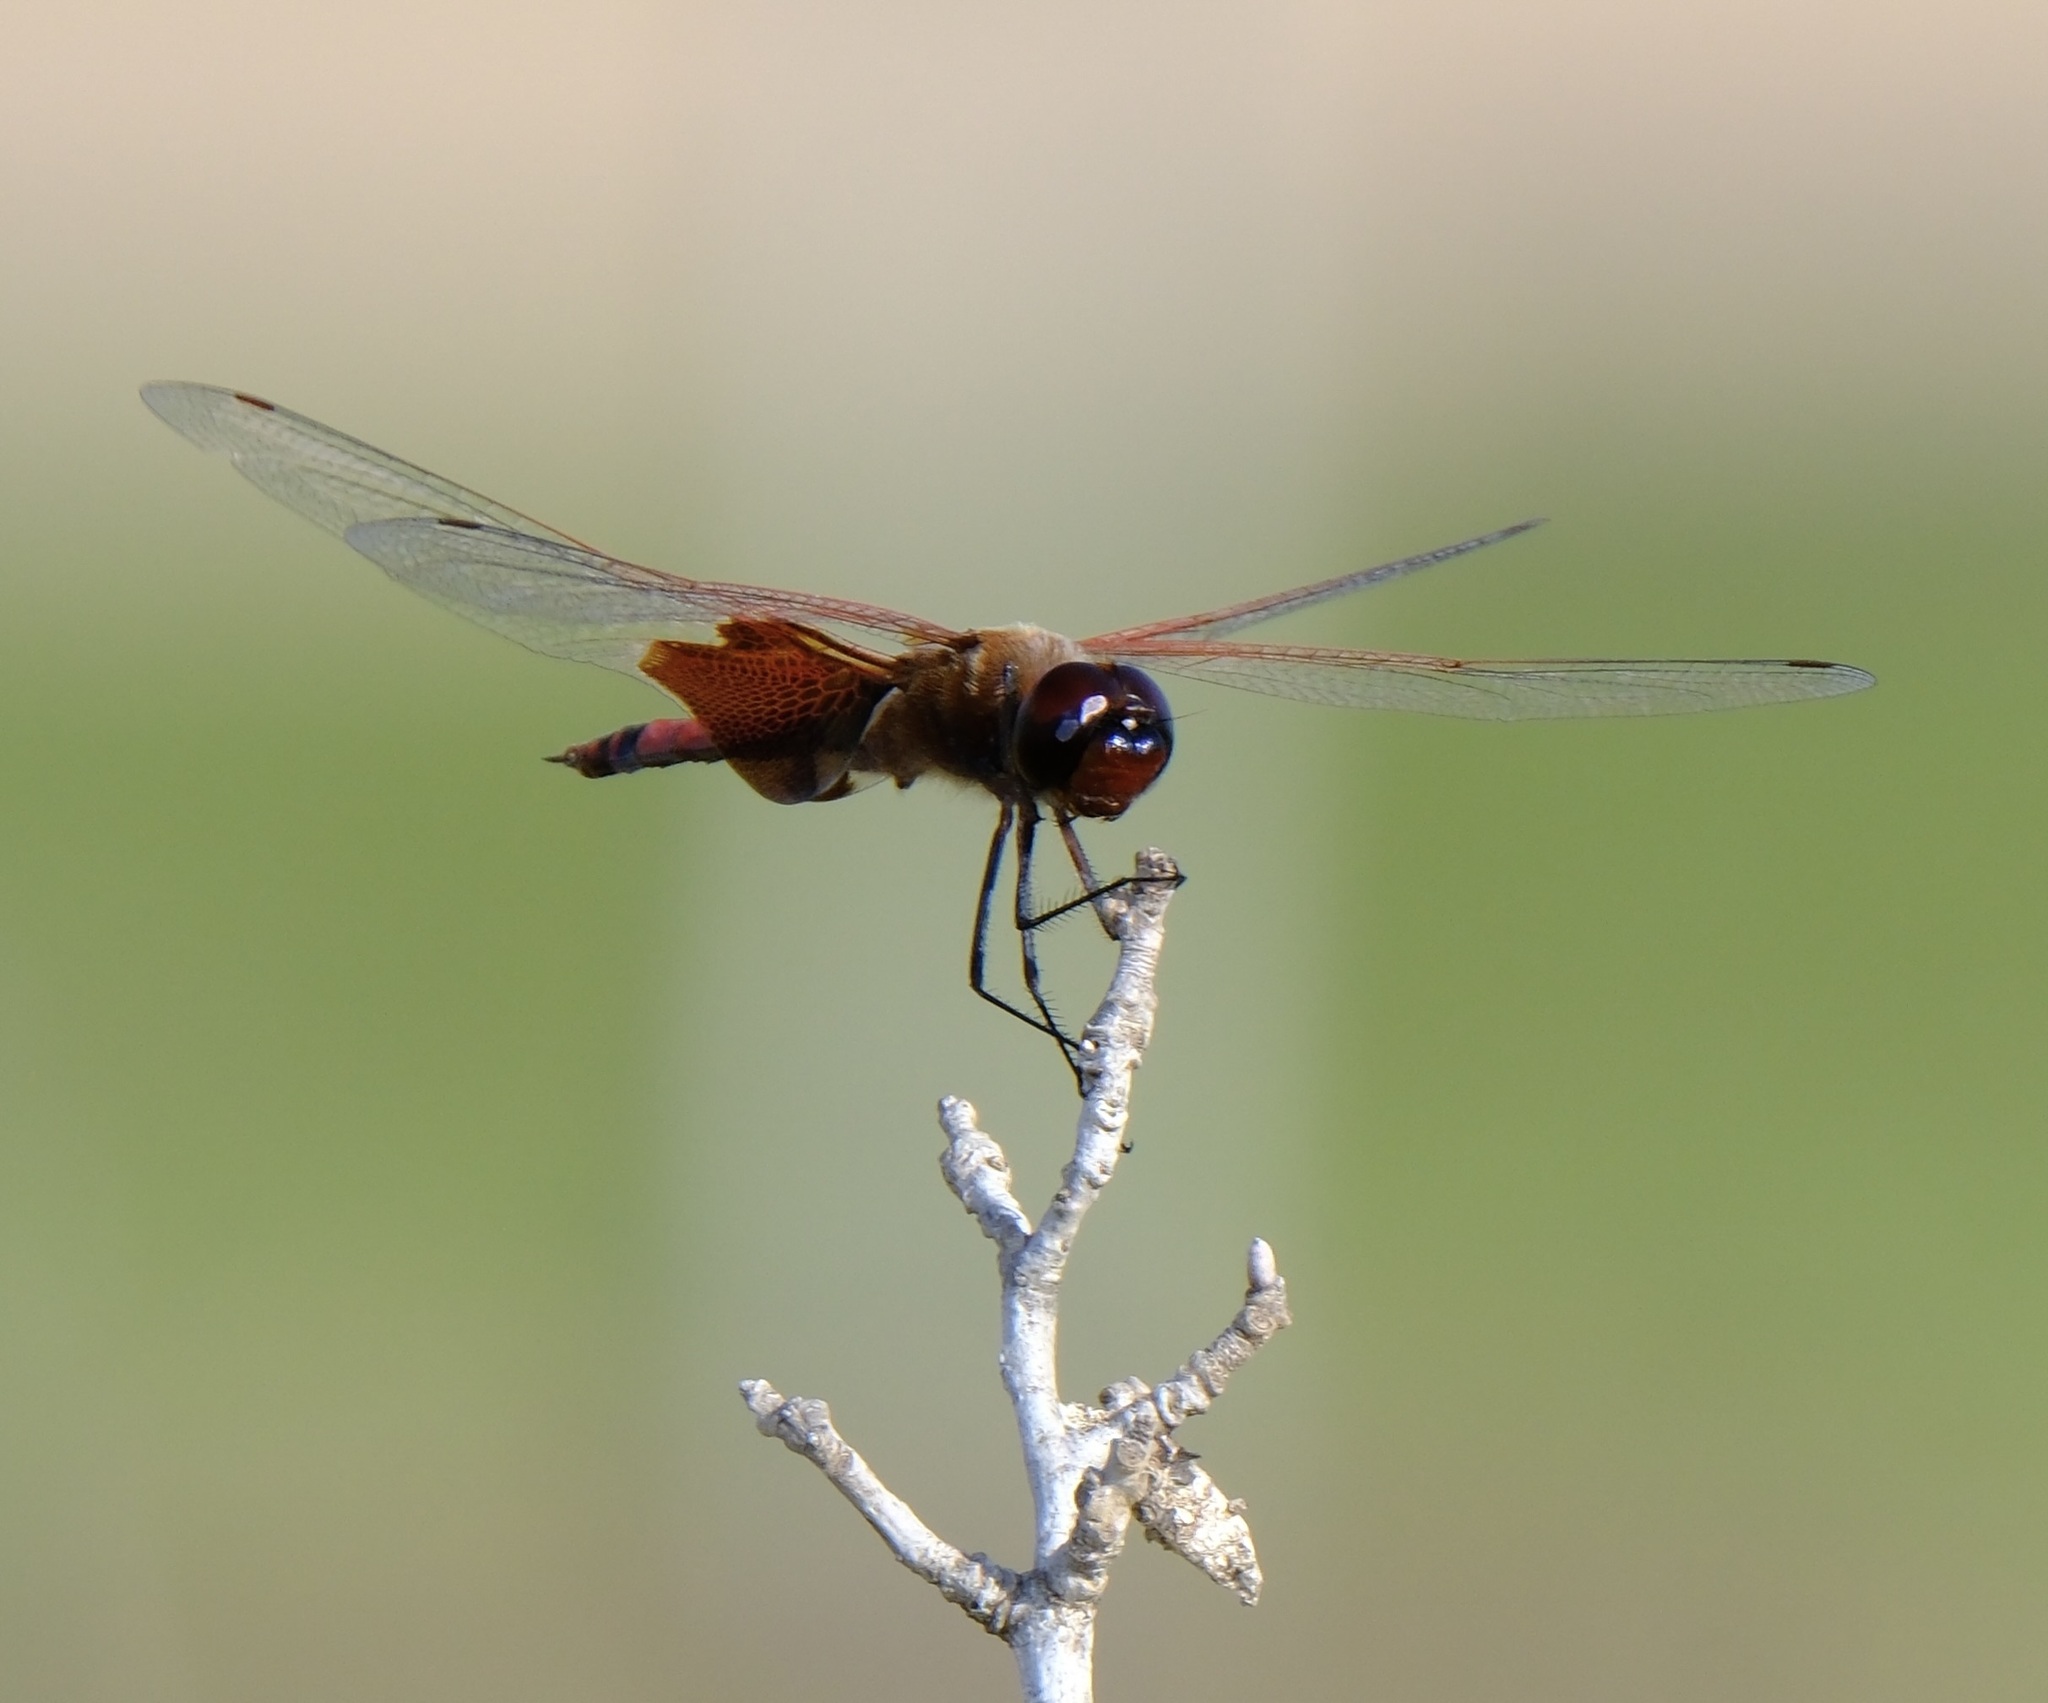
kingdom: Animalia
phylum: Arthropoda
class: Insecta
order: Odonata
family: Libellulidae
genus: Tramea
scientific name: Tramea carolina
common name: Carolina saddlebags
